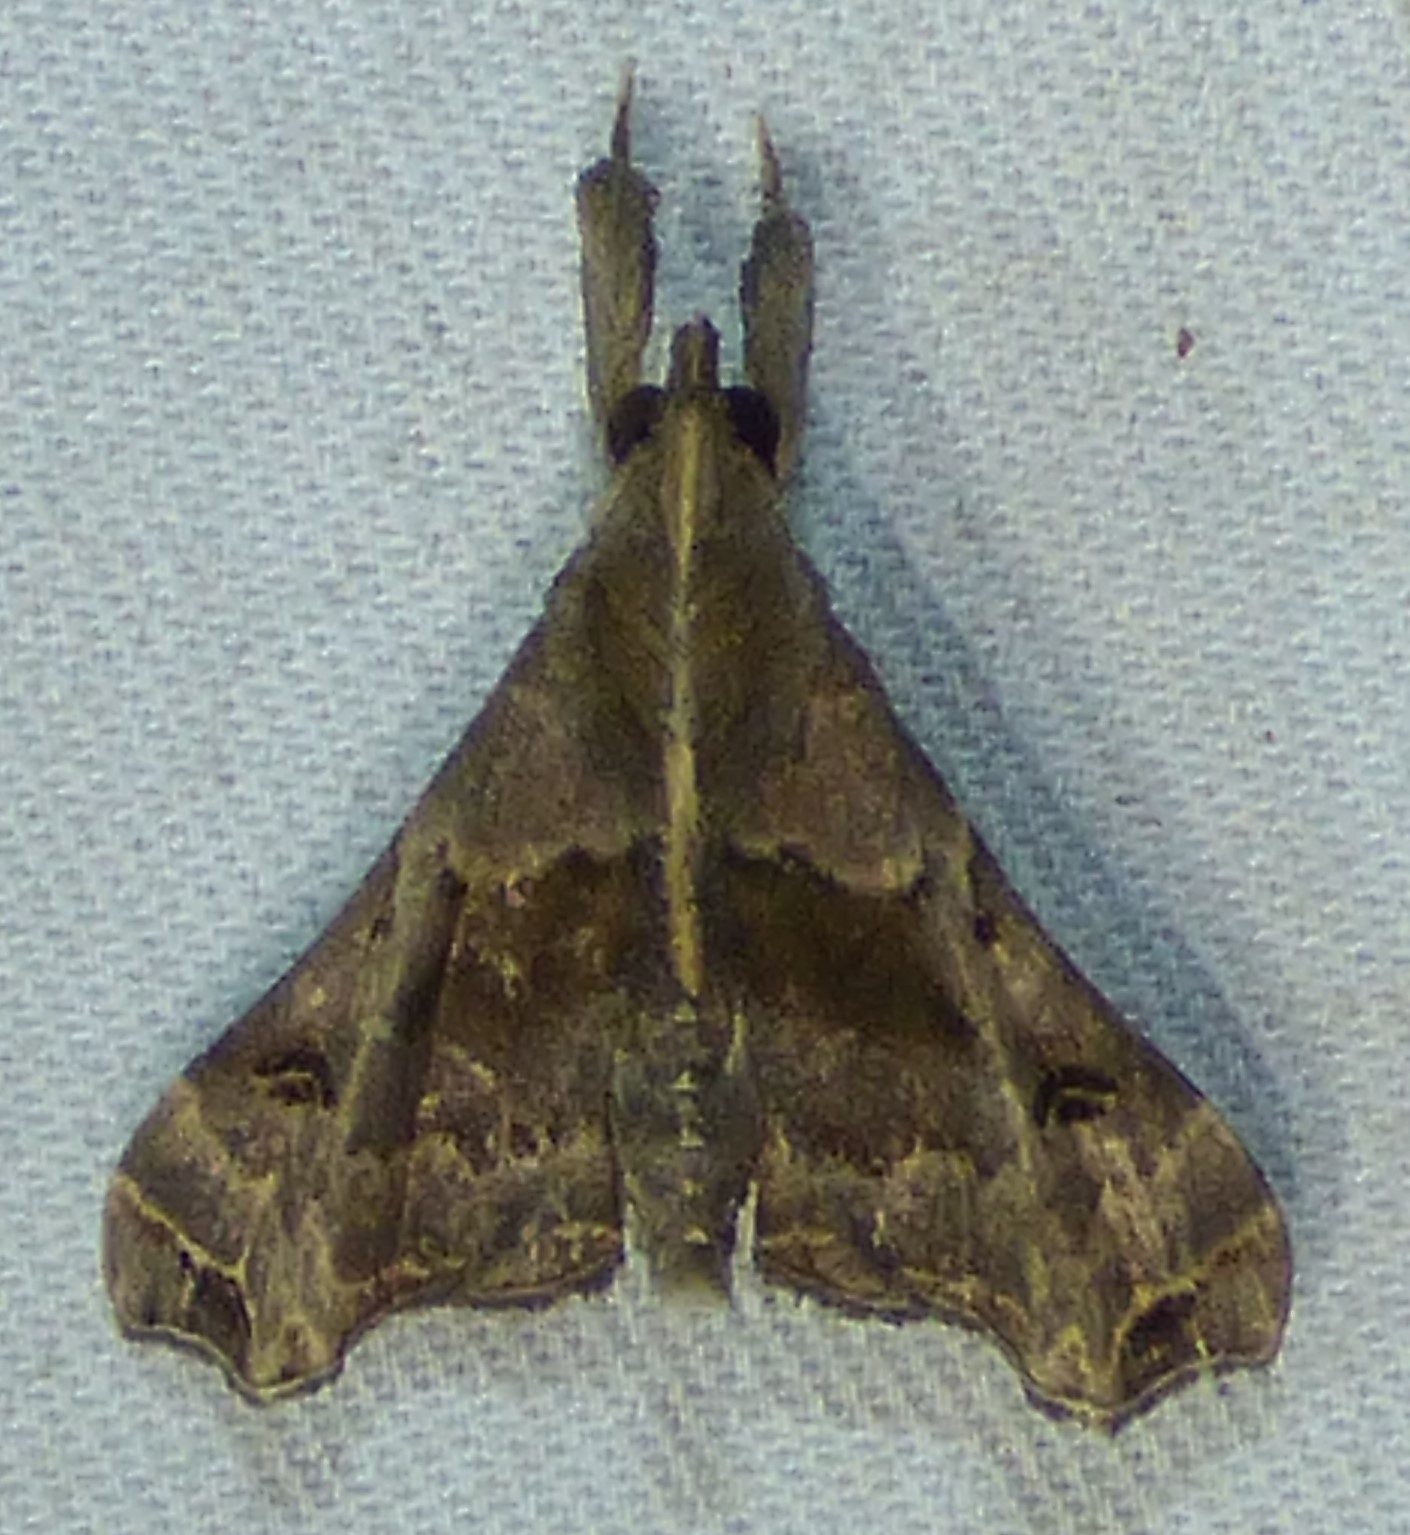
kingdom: Animalia
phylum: Arthropoda
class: Insecta
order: Lepidoptera
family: Erebidae
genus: Palthis
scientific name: Palthis asopialis
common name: Faint-spotted palthis moth
